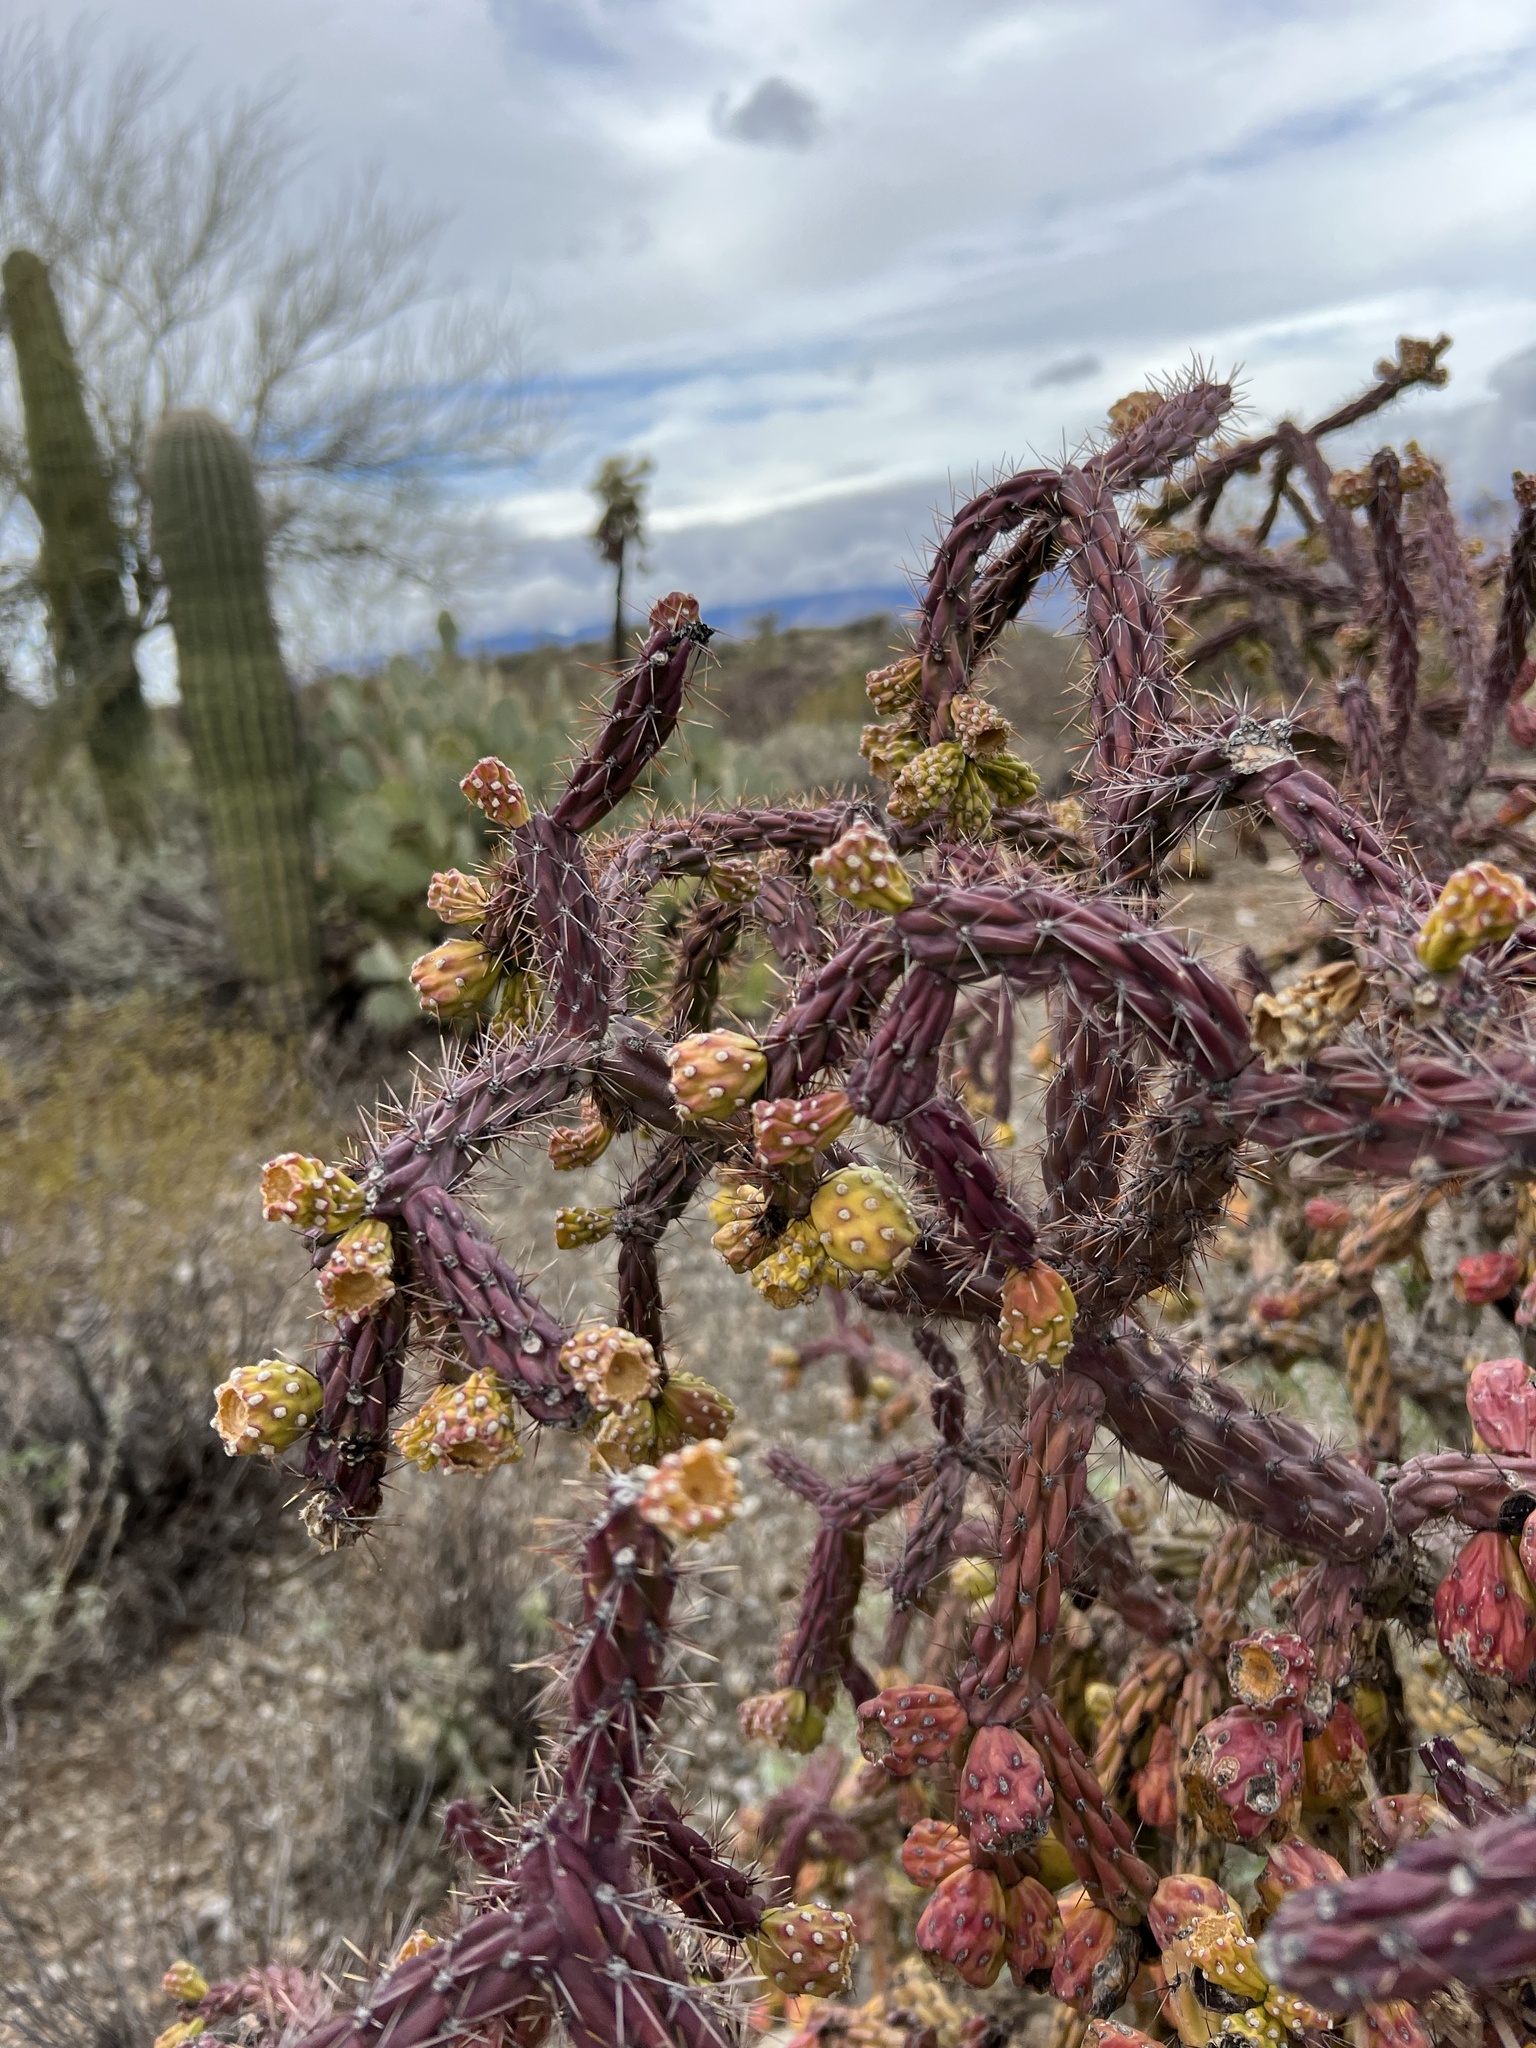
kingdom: Plantae
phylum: Tracheophyta
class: Magnoliopsida
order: Caryophyllales
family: Cactaceae
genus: Cylindropuntia
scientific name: Cylindropuntia thurberi
